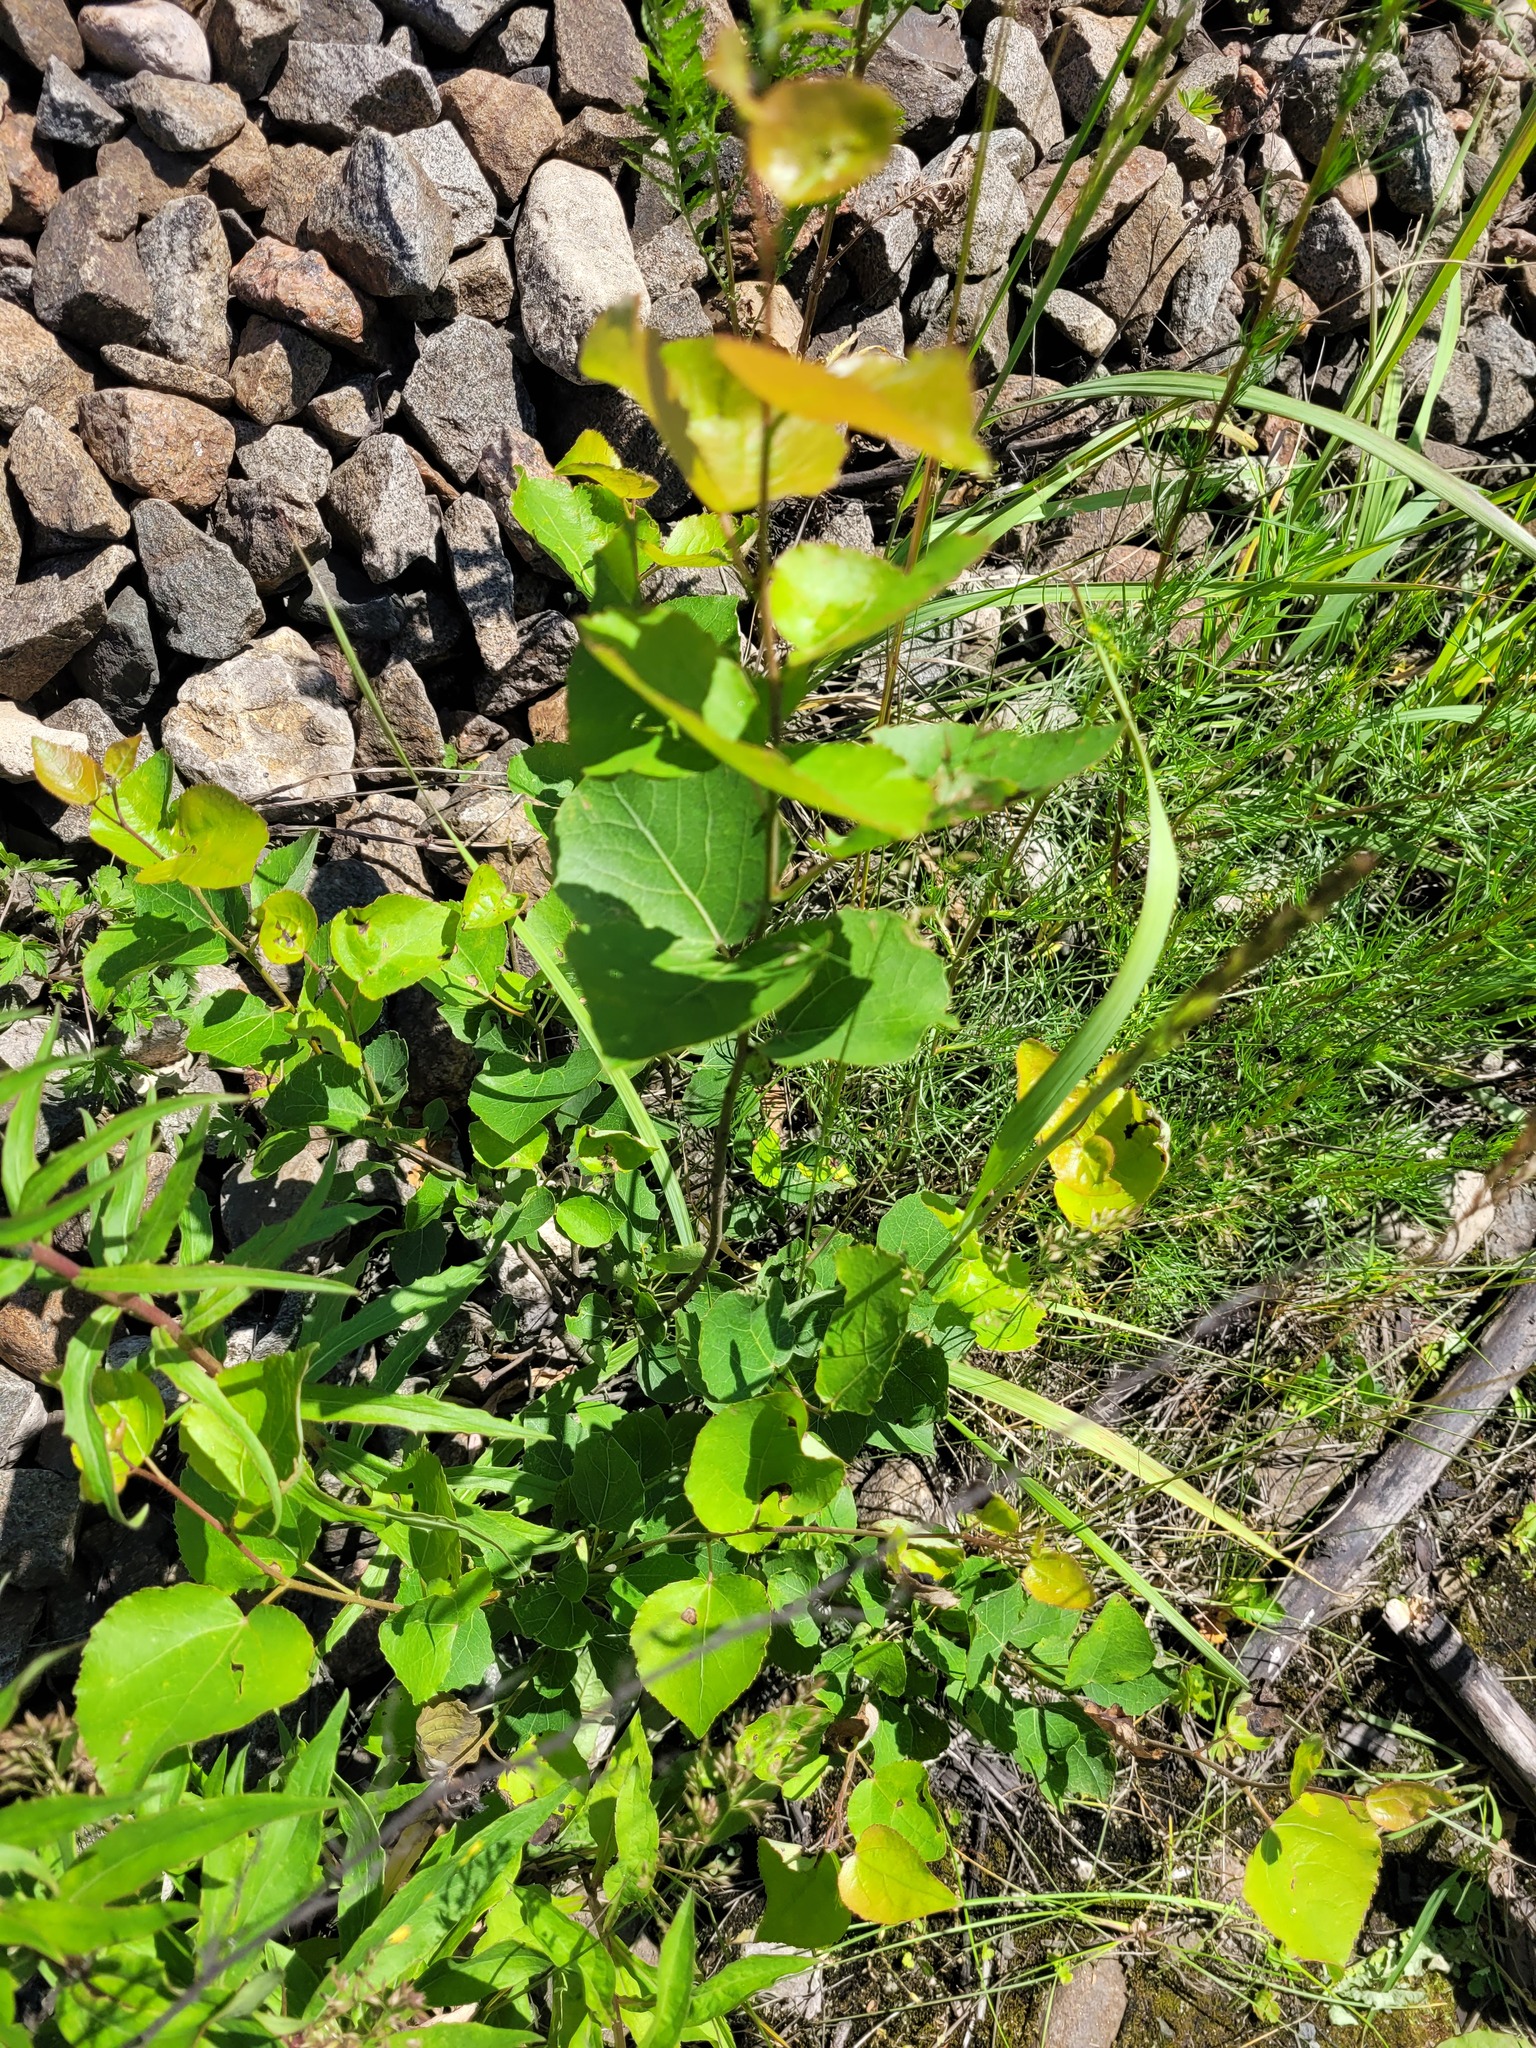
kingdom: Plantae
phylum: Tracheophyta
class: Magnoliopsida
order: Malpighiales
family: Salicaceae
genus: Populus
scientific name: Populus tremula
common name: European aspen
